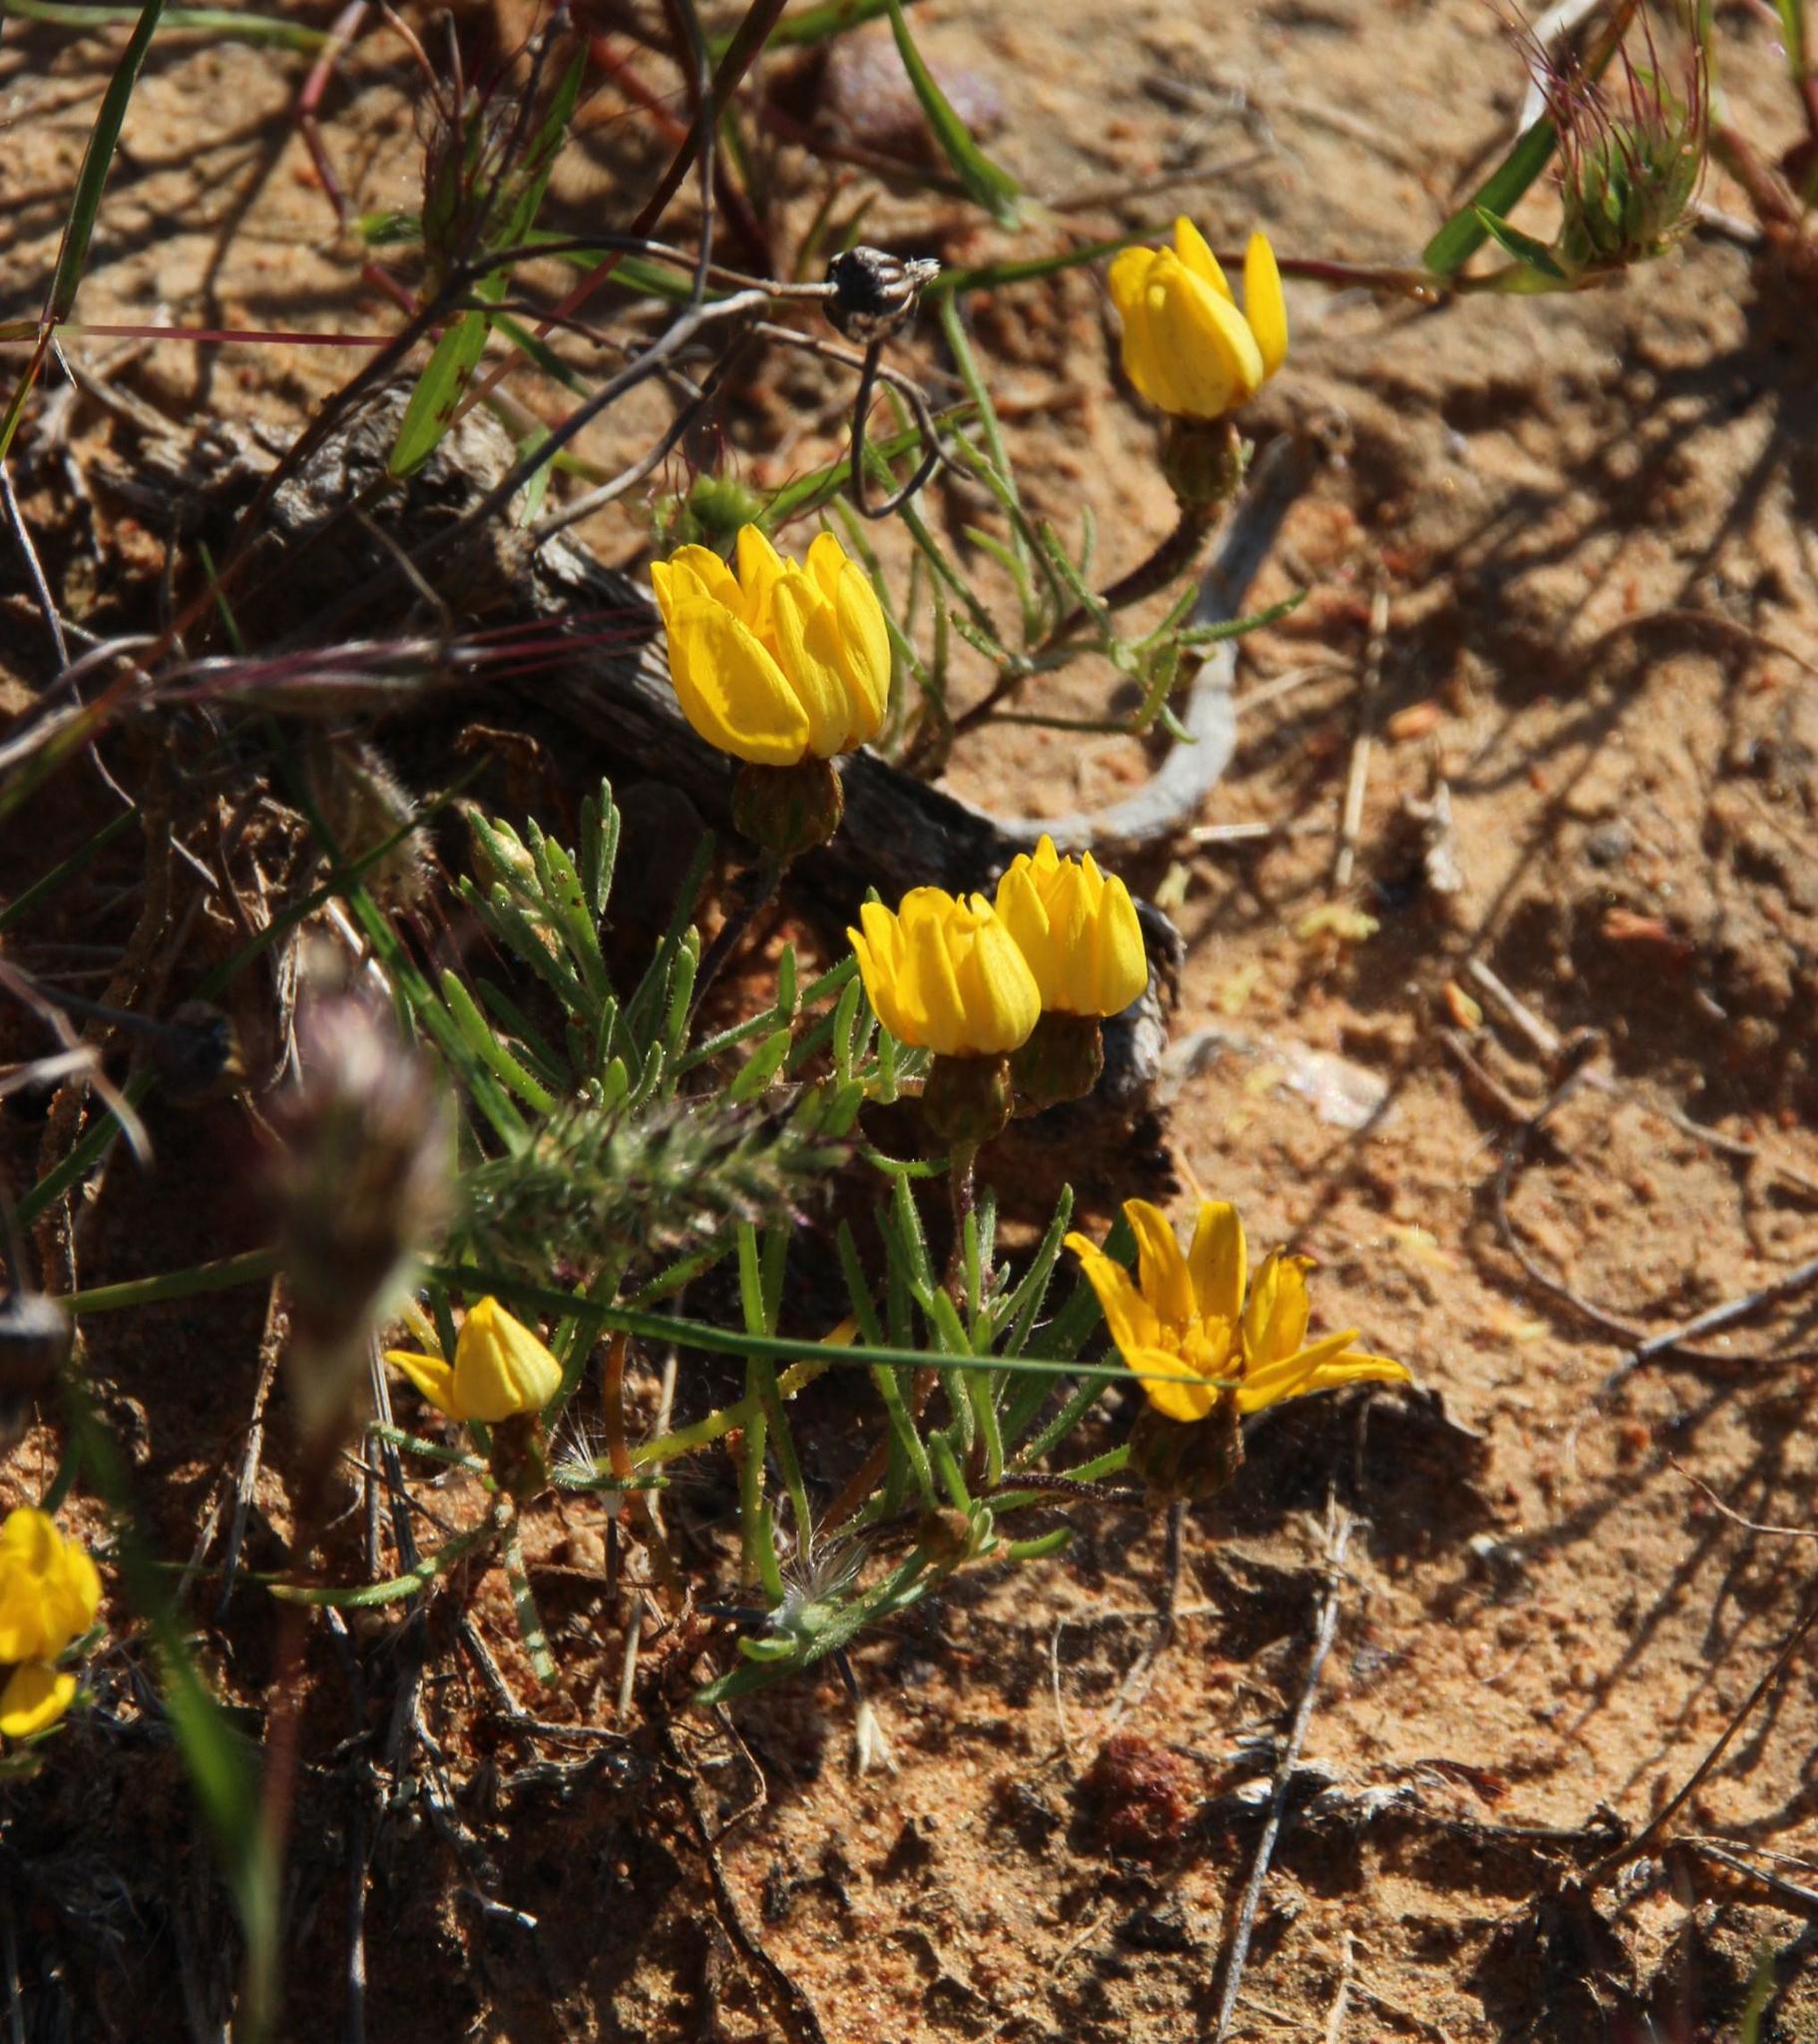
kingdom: Plantae
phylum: Tracheophyta
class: Magnoliopsida
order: Asterales
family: Asteraceae
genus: Rhynchopsidium
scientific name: Rhynchopsidium pumilum
